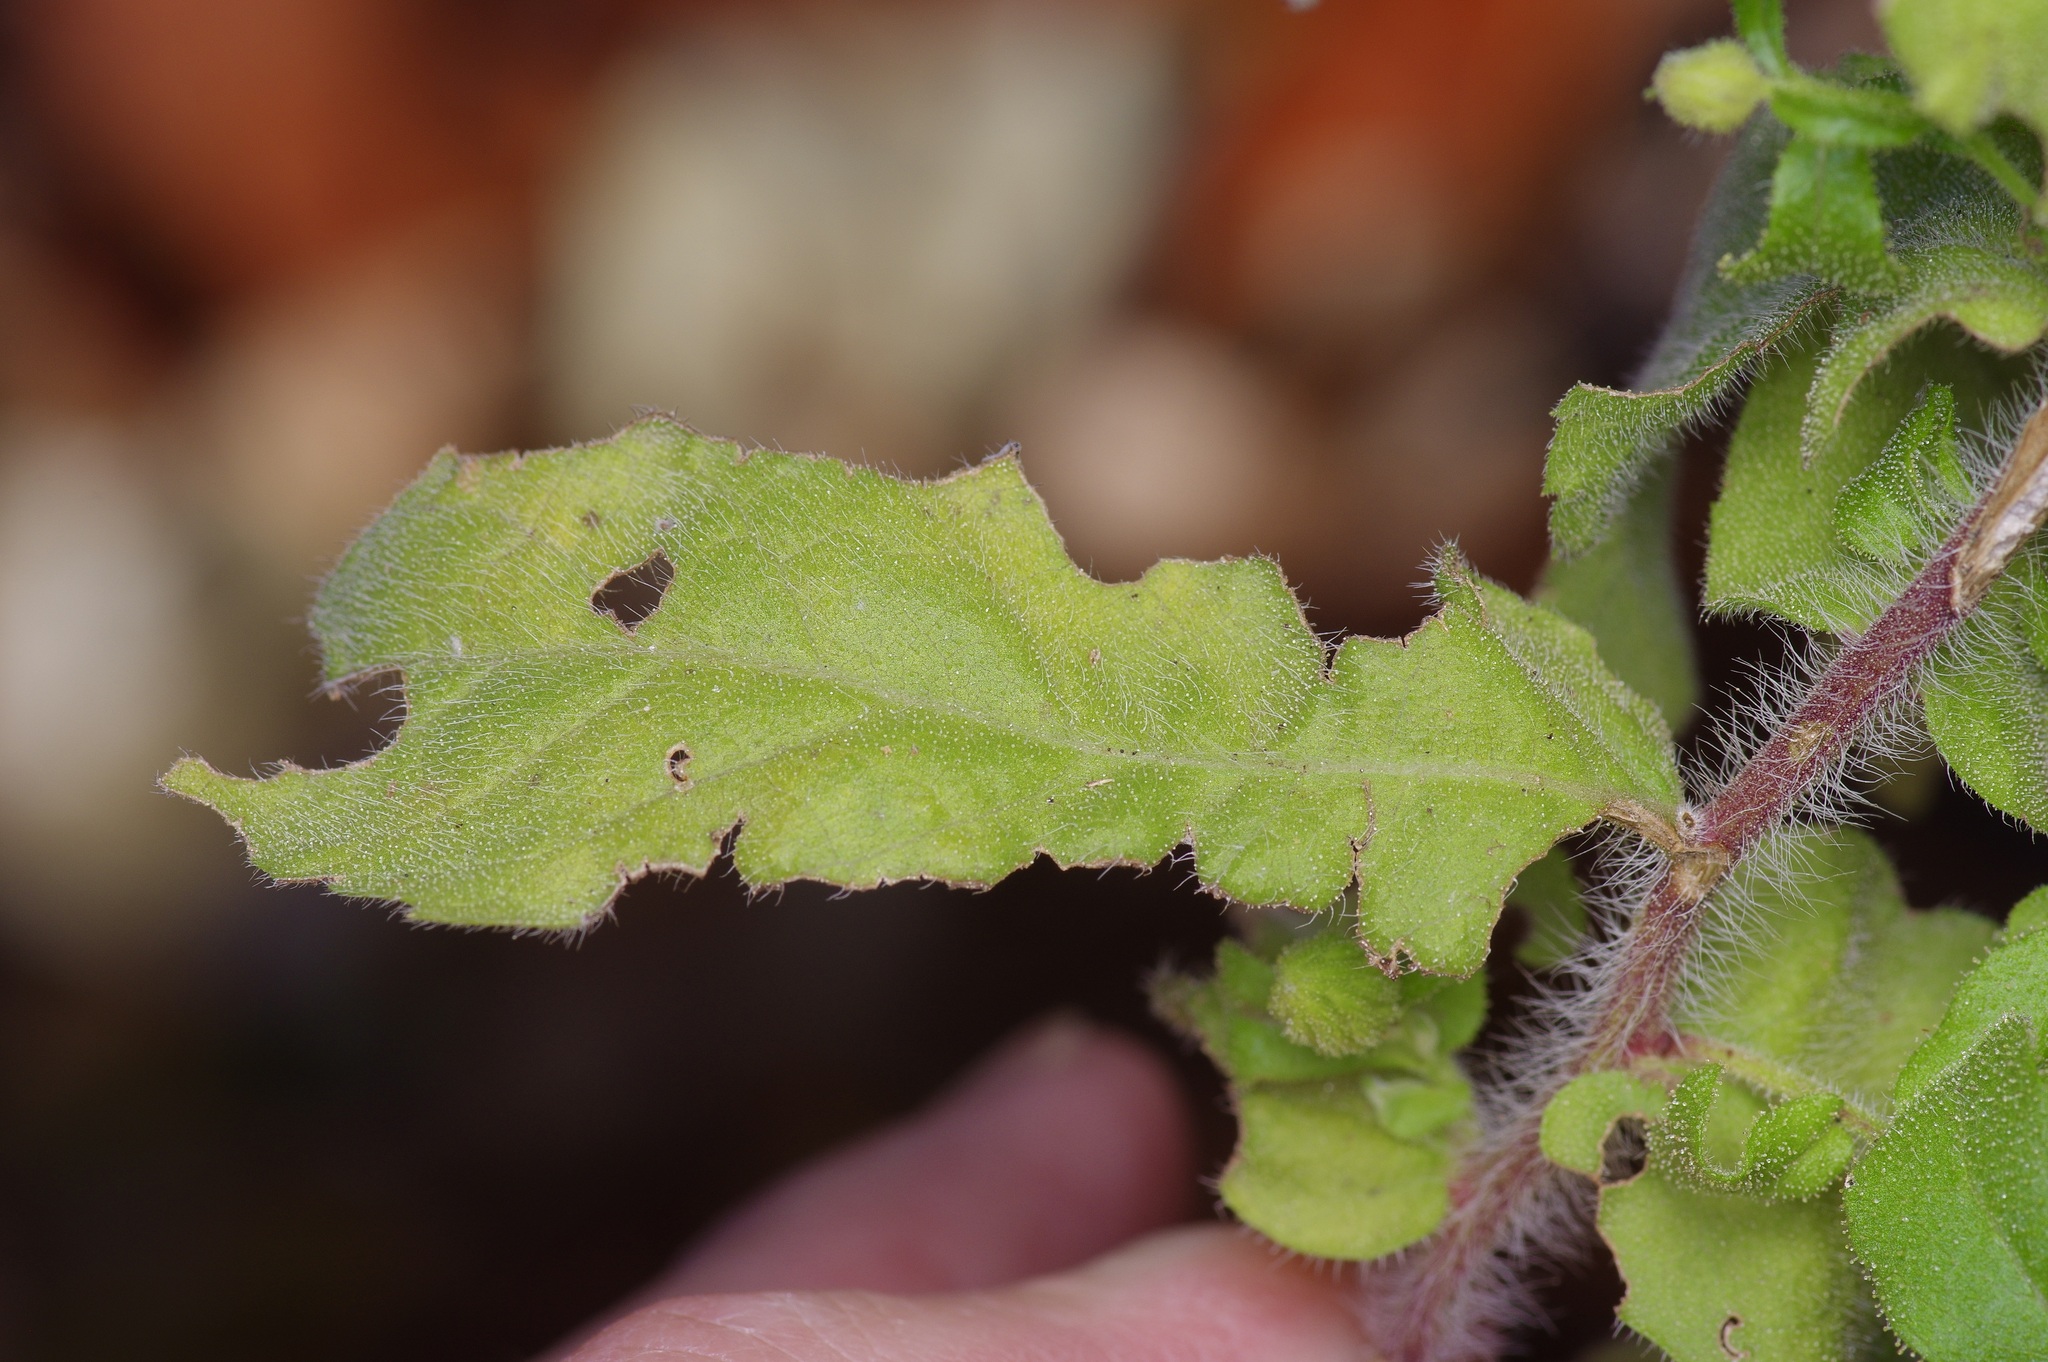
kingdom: Plantae
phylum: Tracheophyta
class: Magnoliopsida
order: Asterales
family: Asteraceae
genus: Heterotheca
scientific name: Heterotheca subaxillaris
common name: Camphorweed
